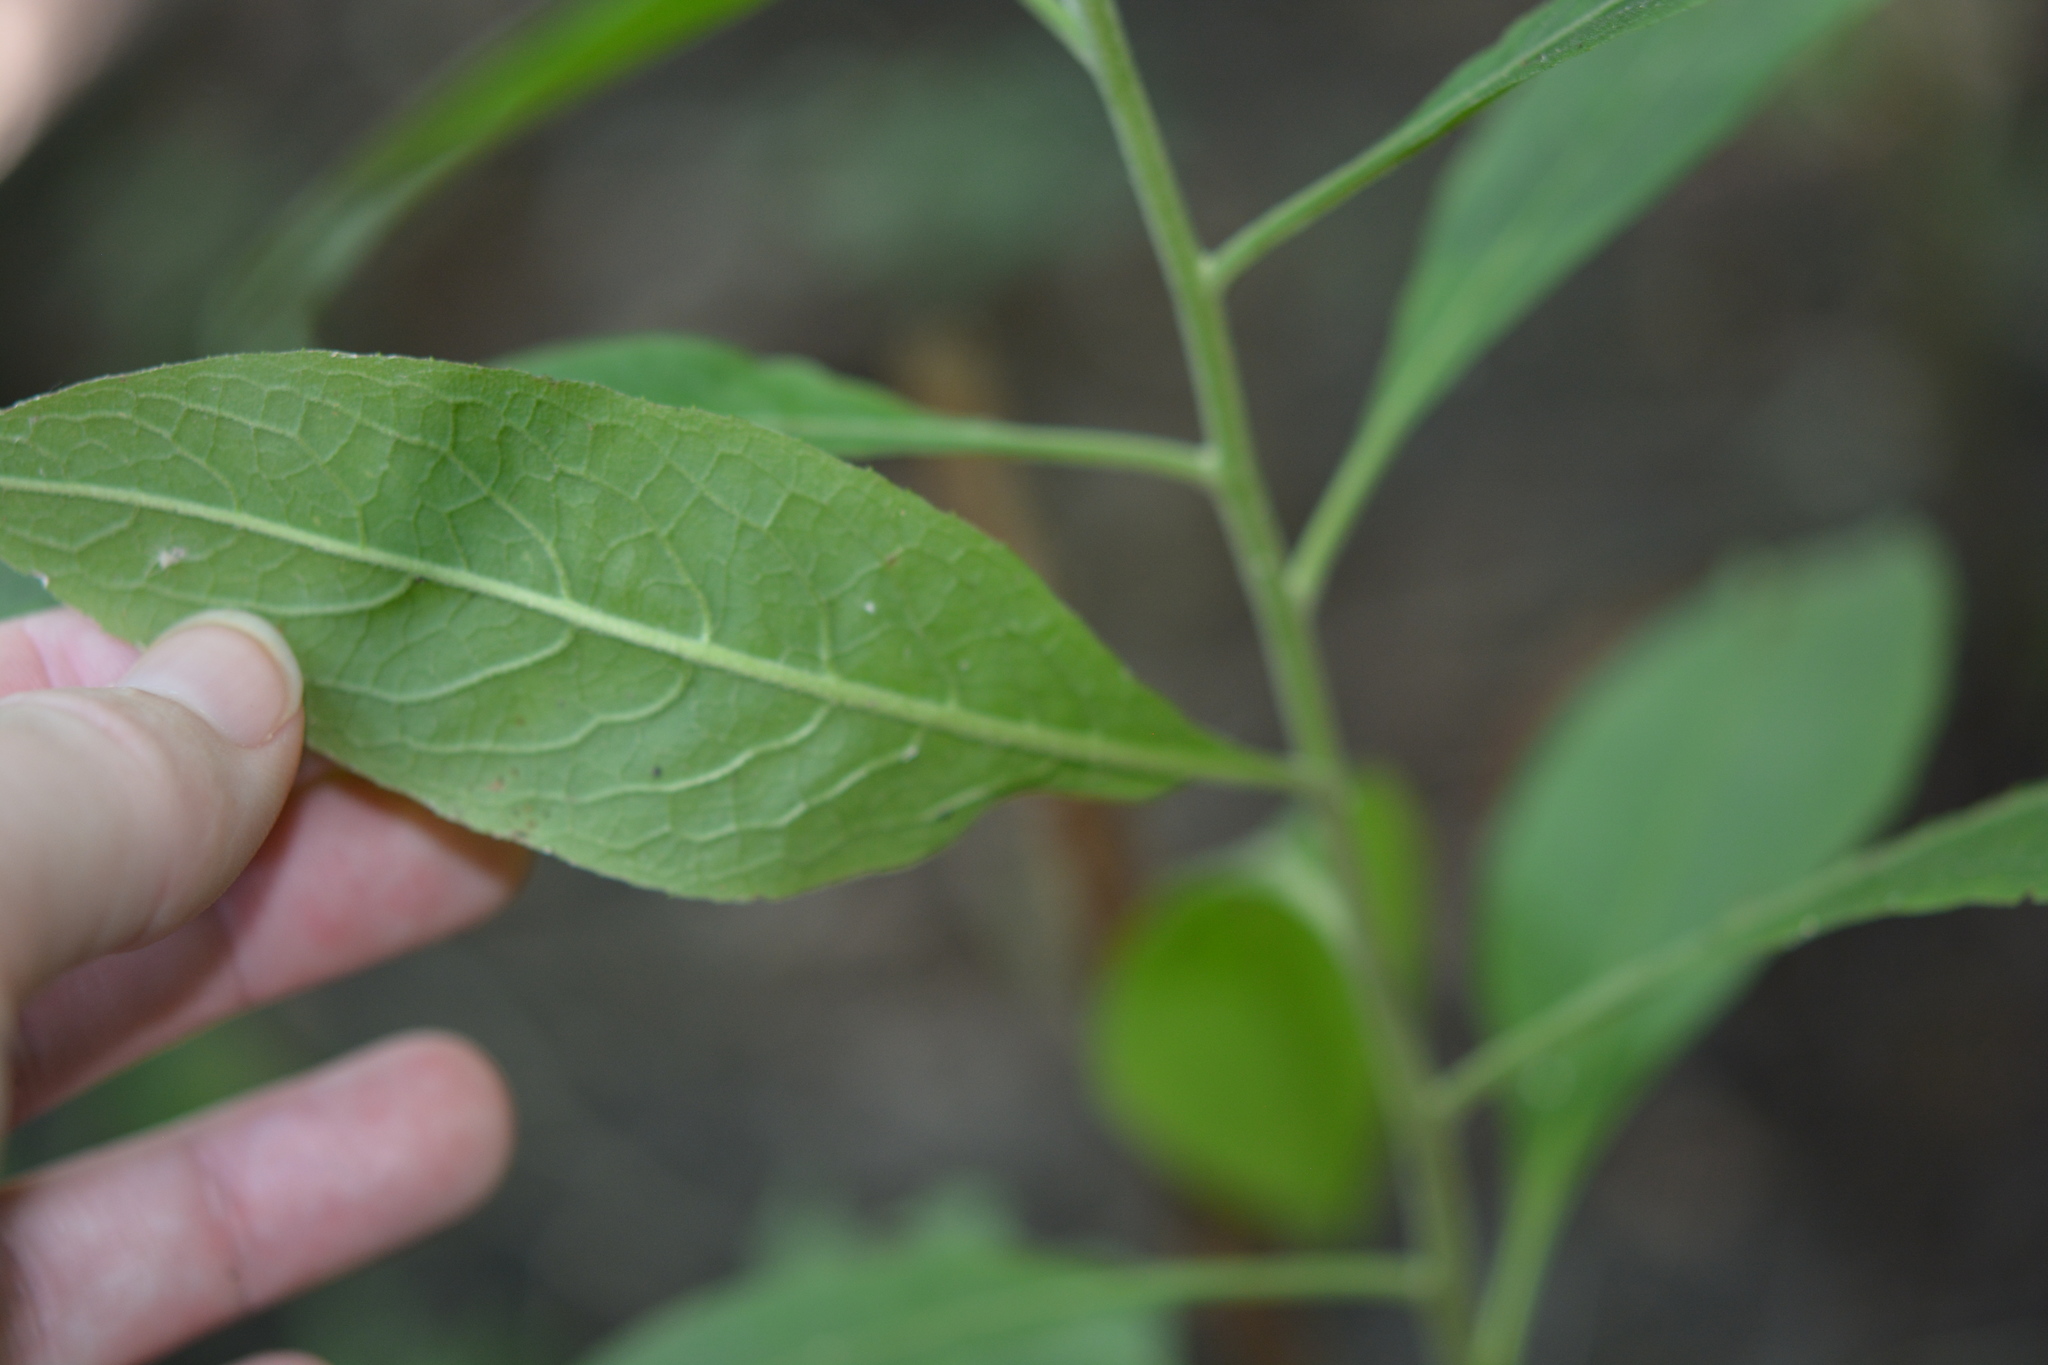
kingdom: Plantae
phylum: Tracheophyta
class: Magnoliopsida
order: Asterales
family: Asteraceae
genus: Pluchea
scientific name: Pluchea camphorata
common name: Camphor pluchea
